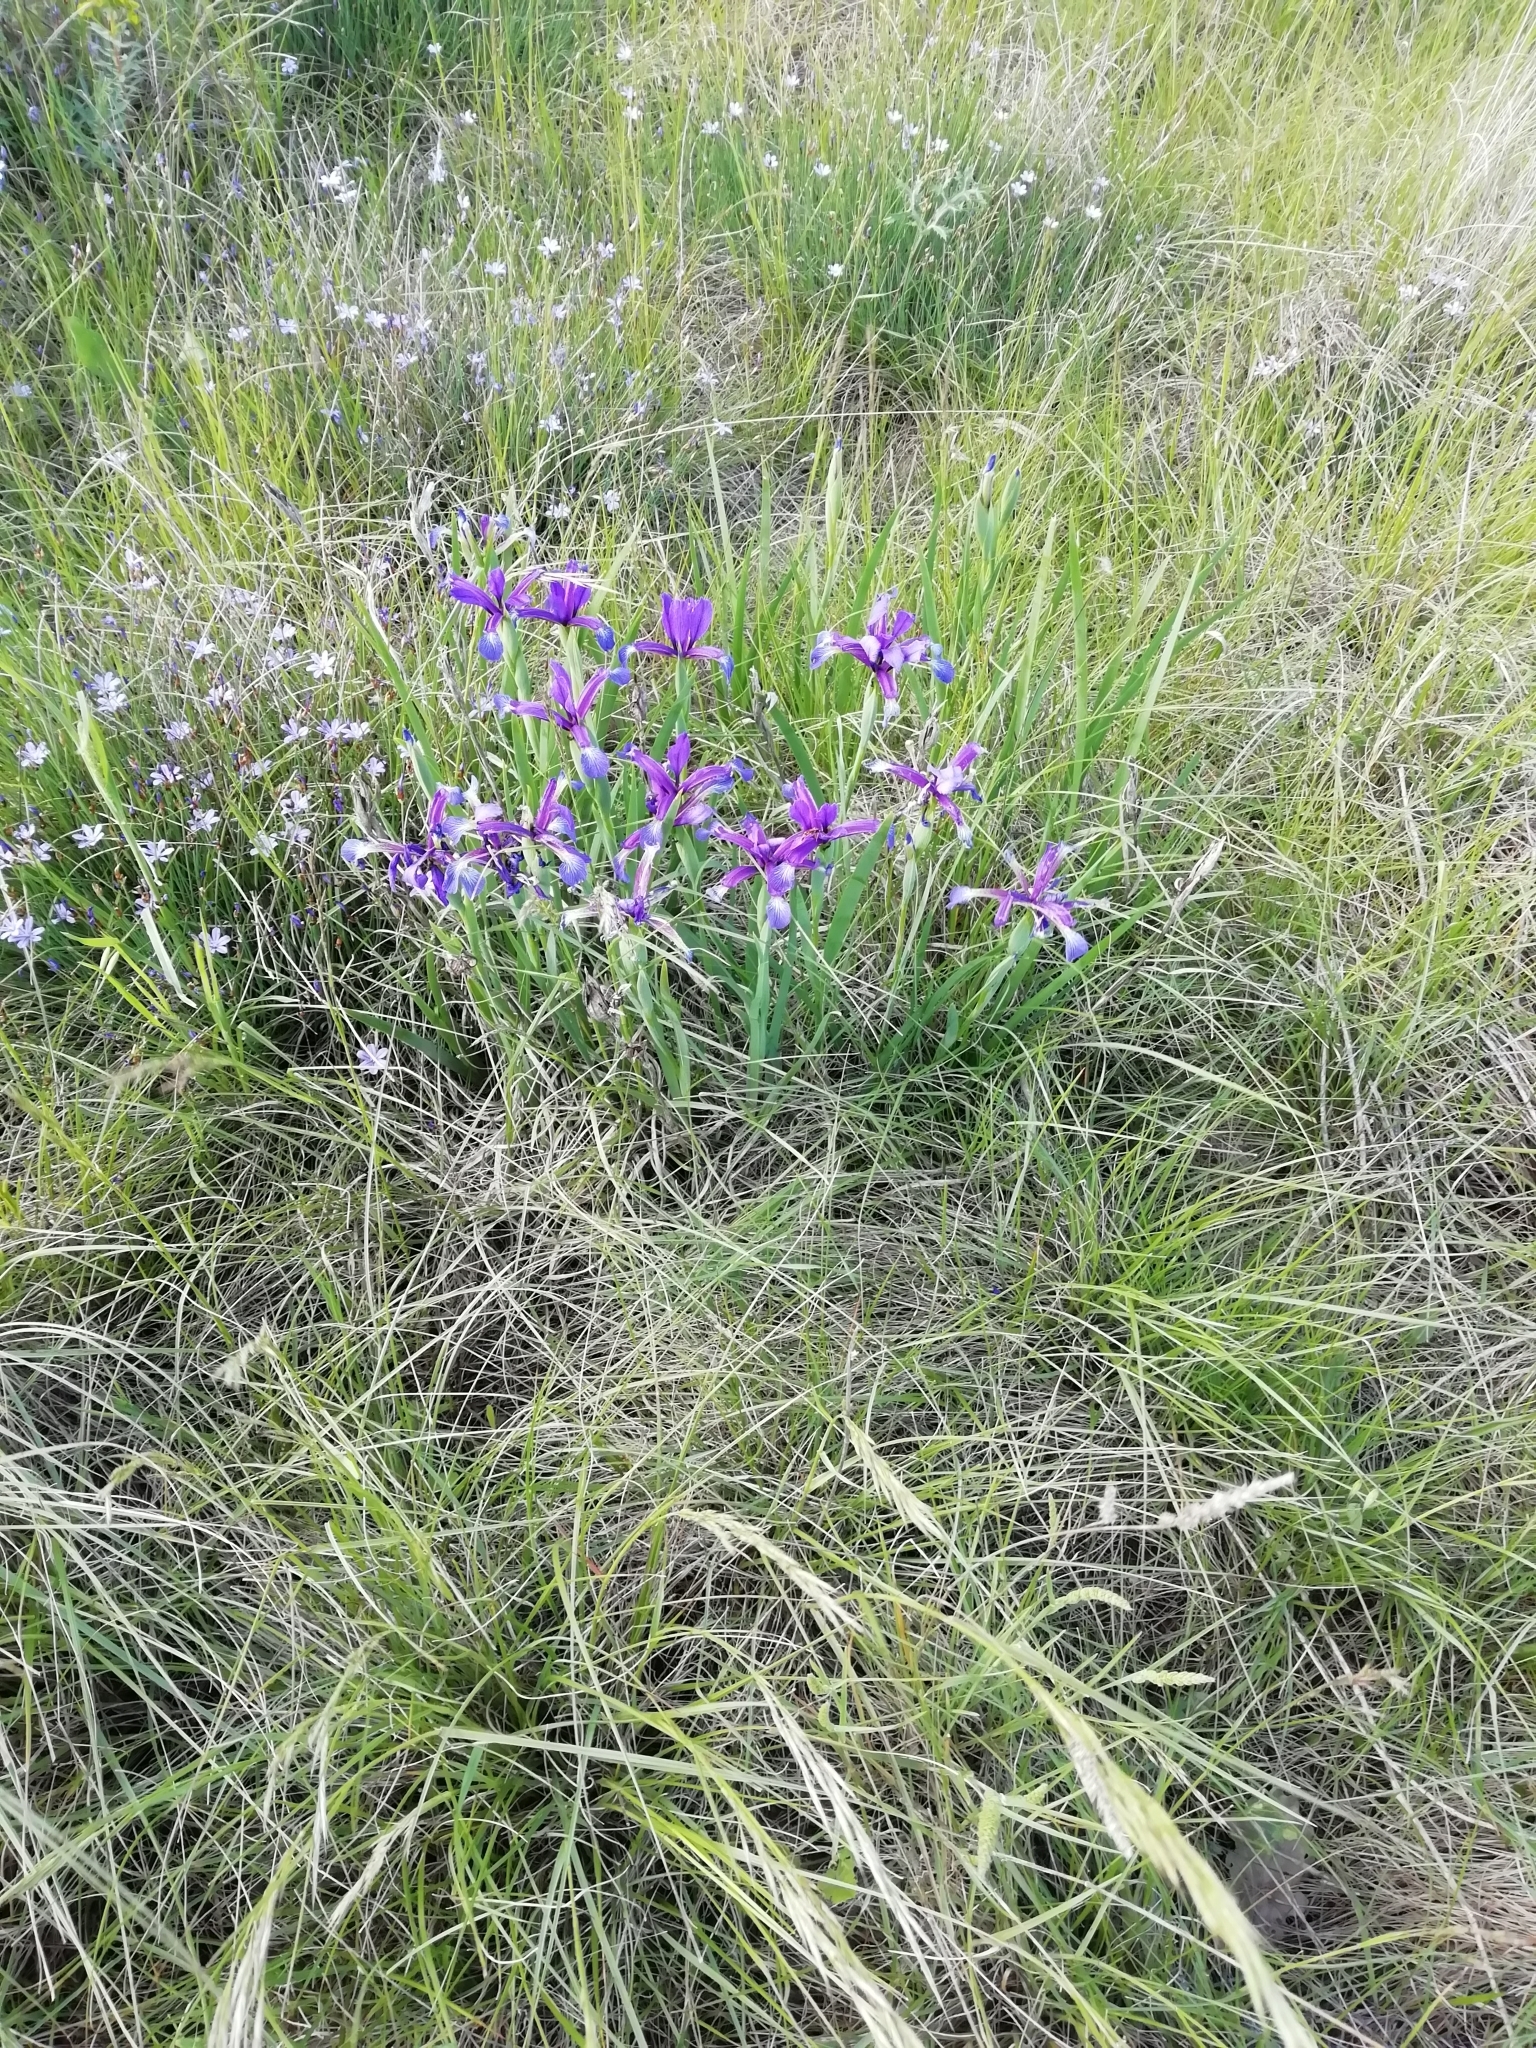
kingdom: Plantae
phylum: Tracheophyta
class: Liliopsida
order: Asparagales
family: Iridaceae
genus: Iris
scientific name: Iris reichenbachiana
